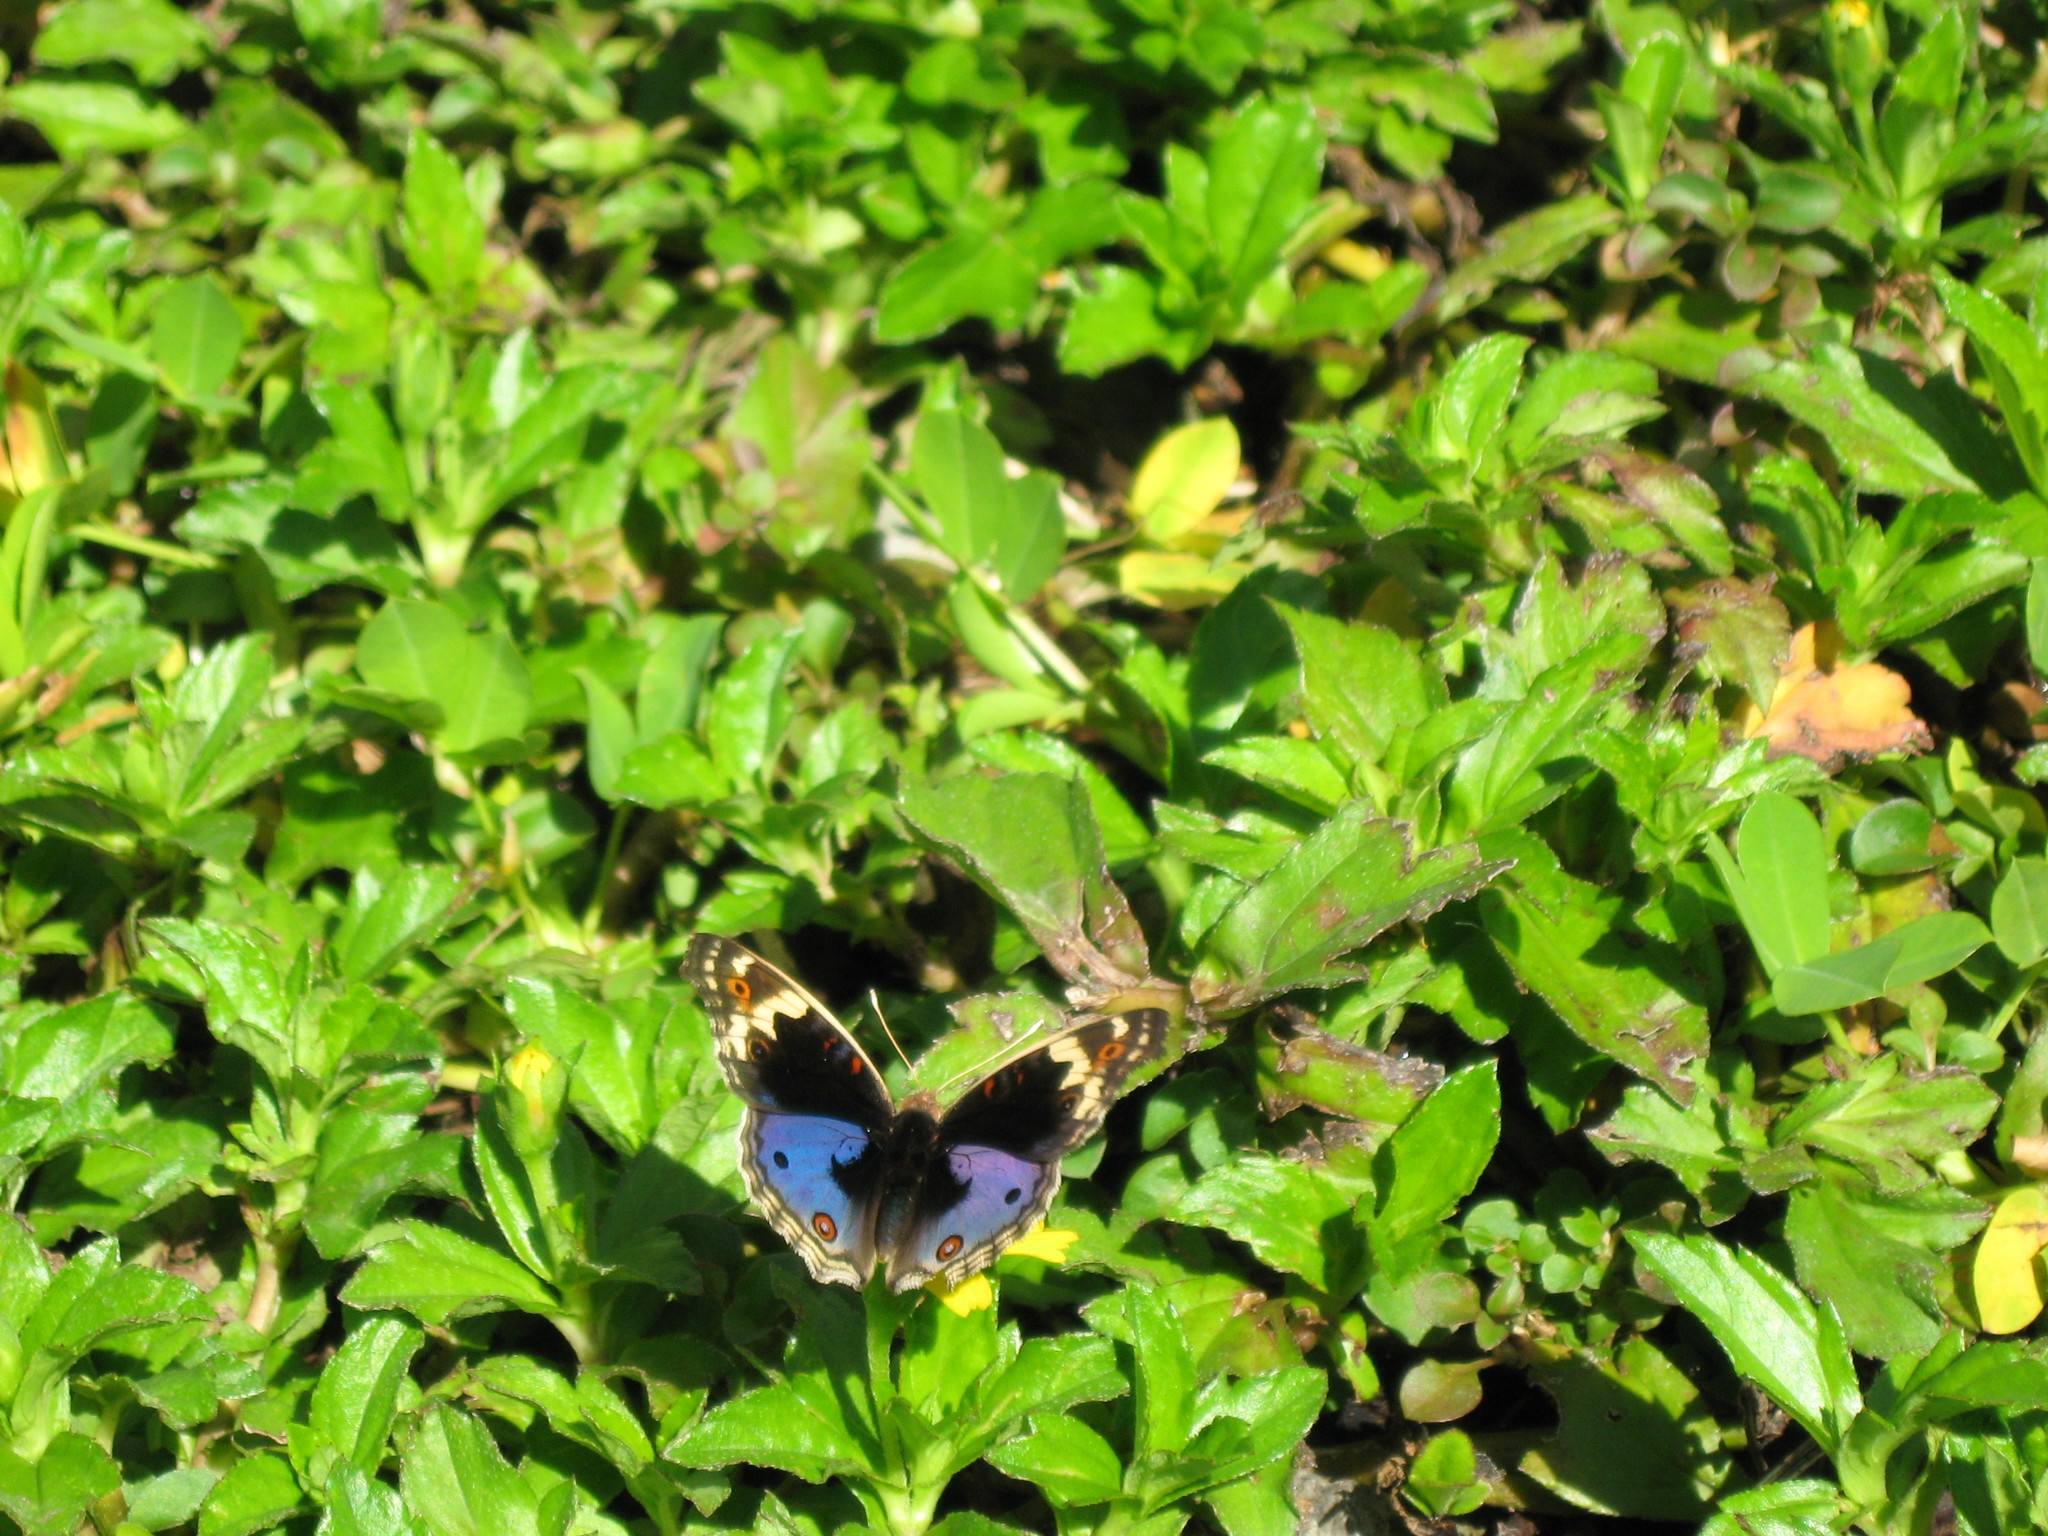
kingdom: Animalia
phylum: Arthropoda
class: Insecta
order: Lepidoptera
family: Nymphalidae
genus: Junonia
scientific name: Junonia orithya
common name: Blue pansy
